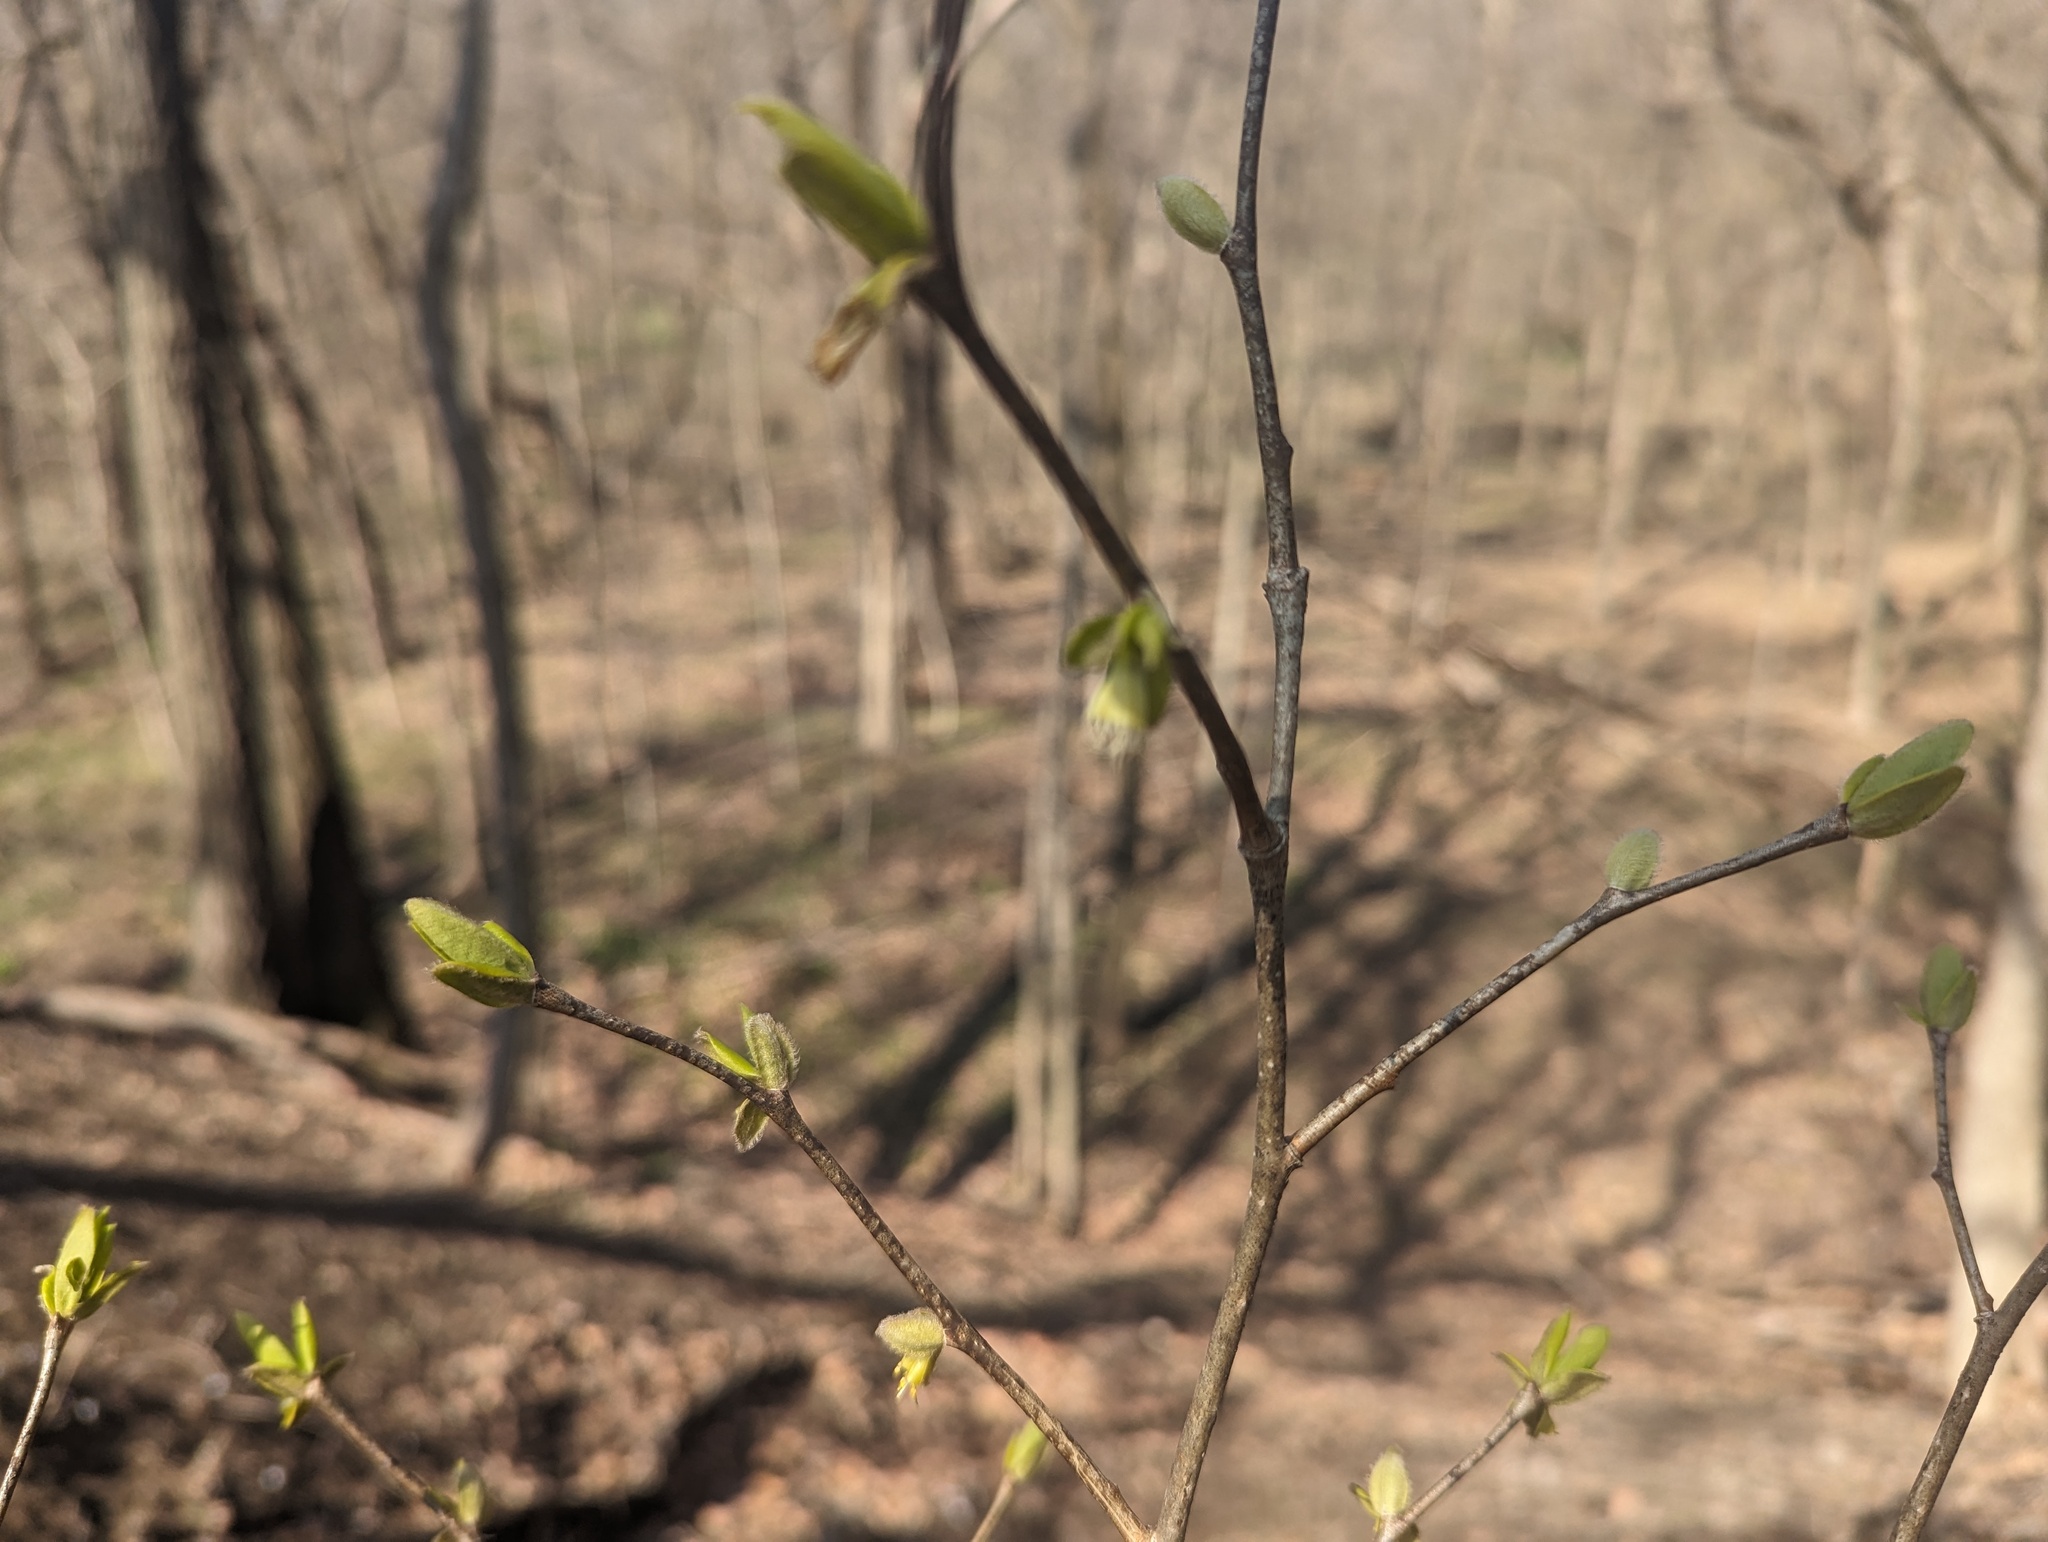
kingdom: Plantae
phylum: Tracheophyta
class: Magnoliopsida
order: Malvales
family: Thymelaeaceae
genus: Dirca
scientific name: Dirca palustris
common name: Leatherwood
